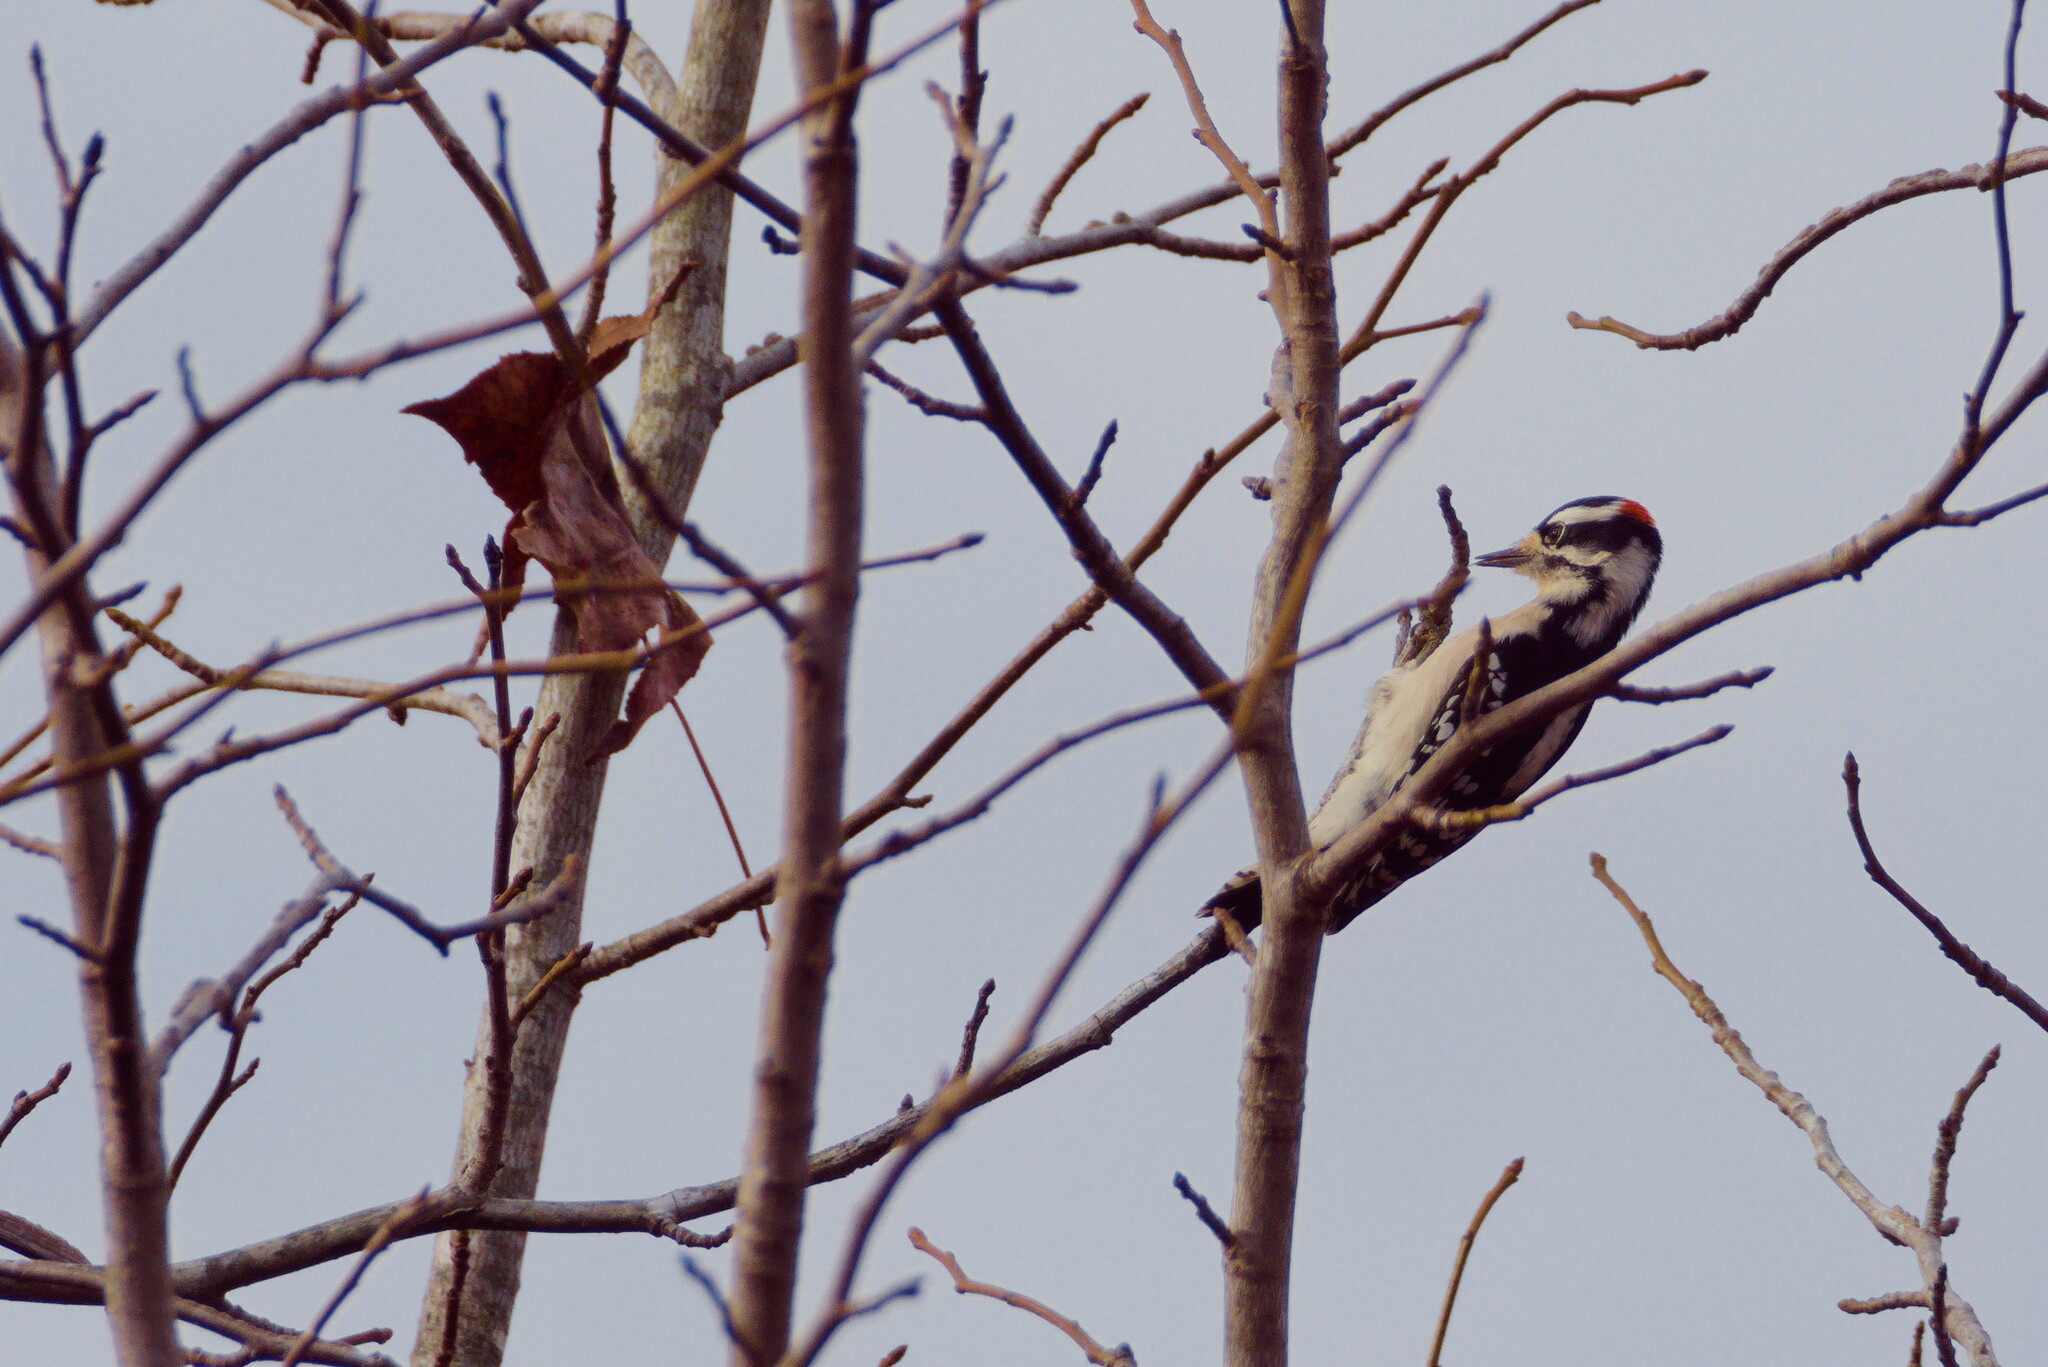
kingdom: Animalia
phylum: Chordata
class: Aves
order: Piciformes
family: Picidae
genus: Dryobates
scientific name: Dryobates pubescens
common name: Downy woodpecker
